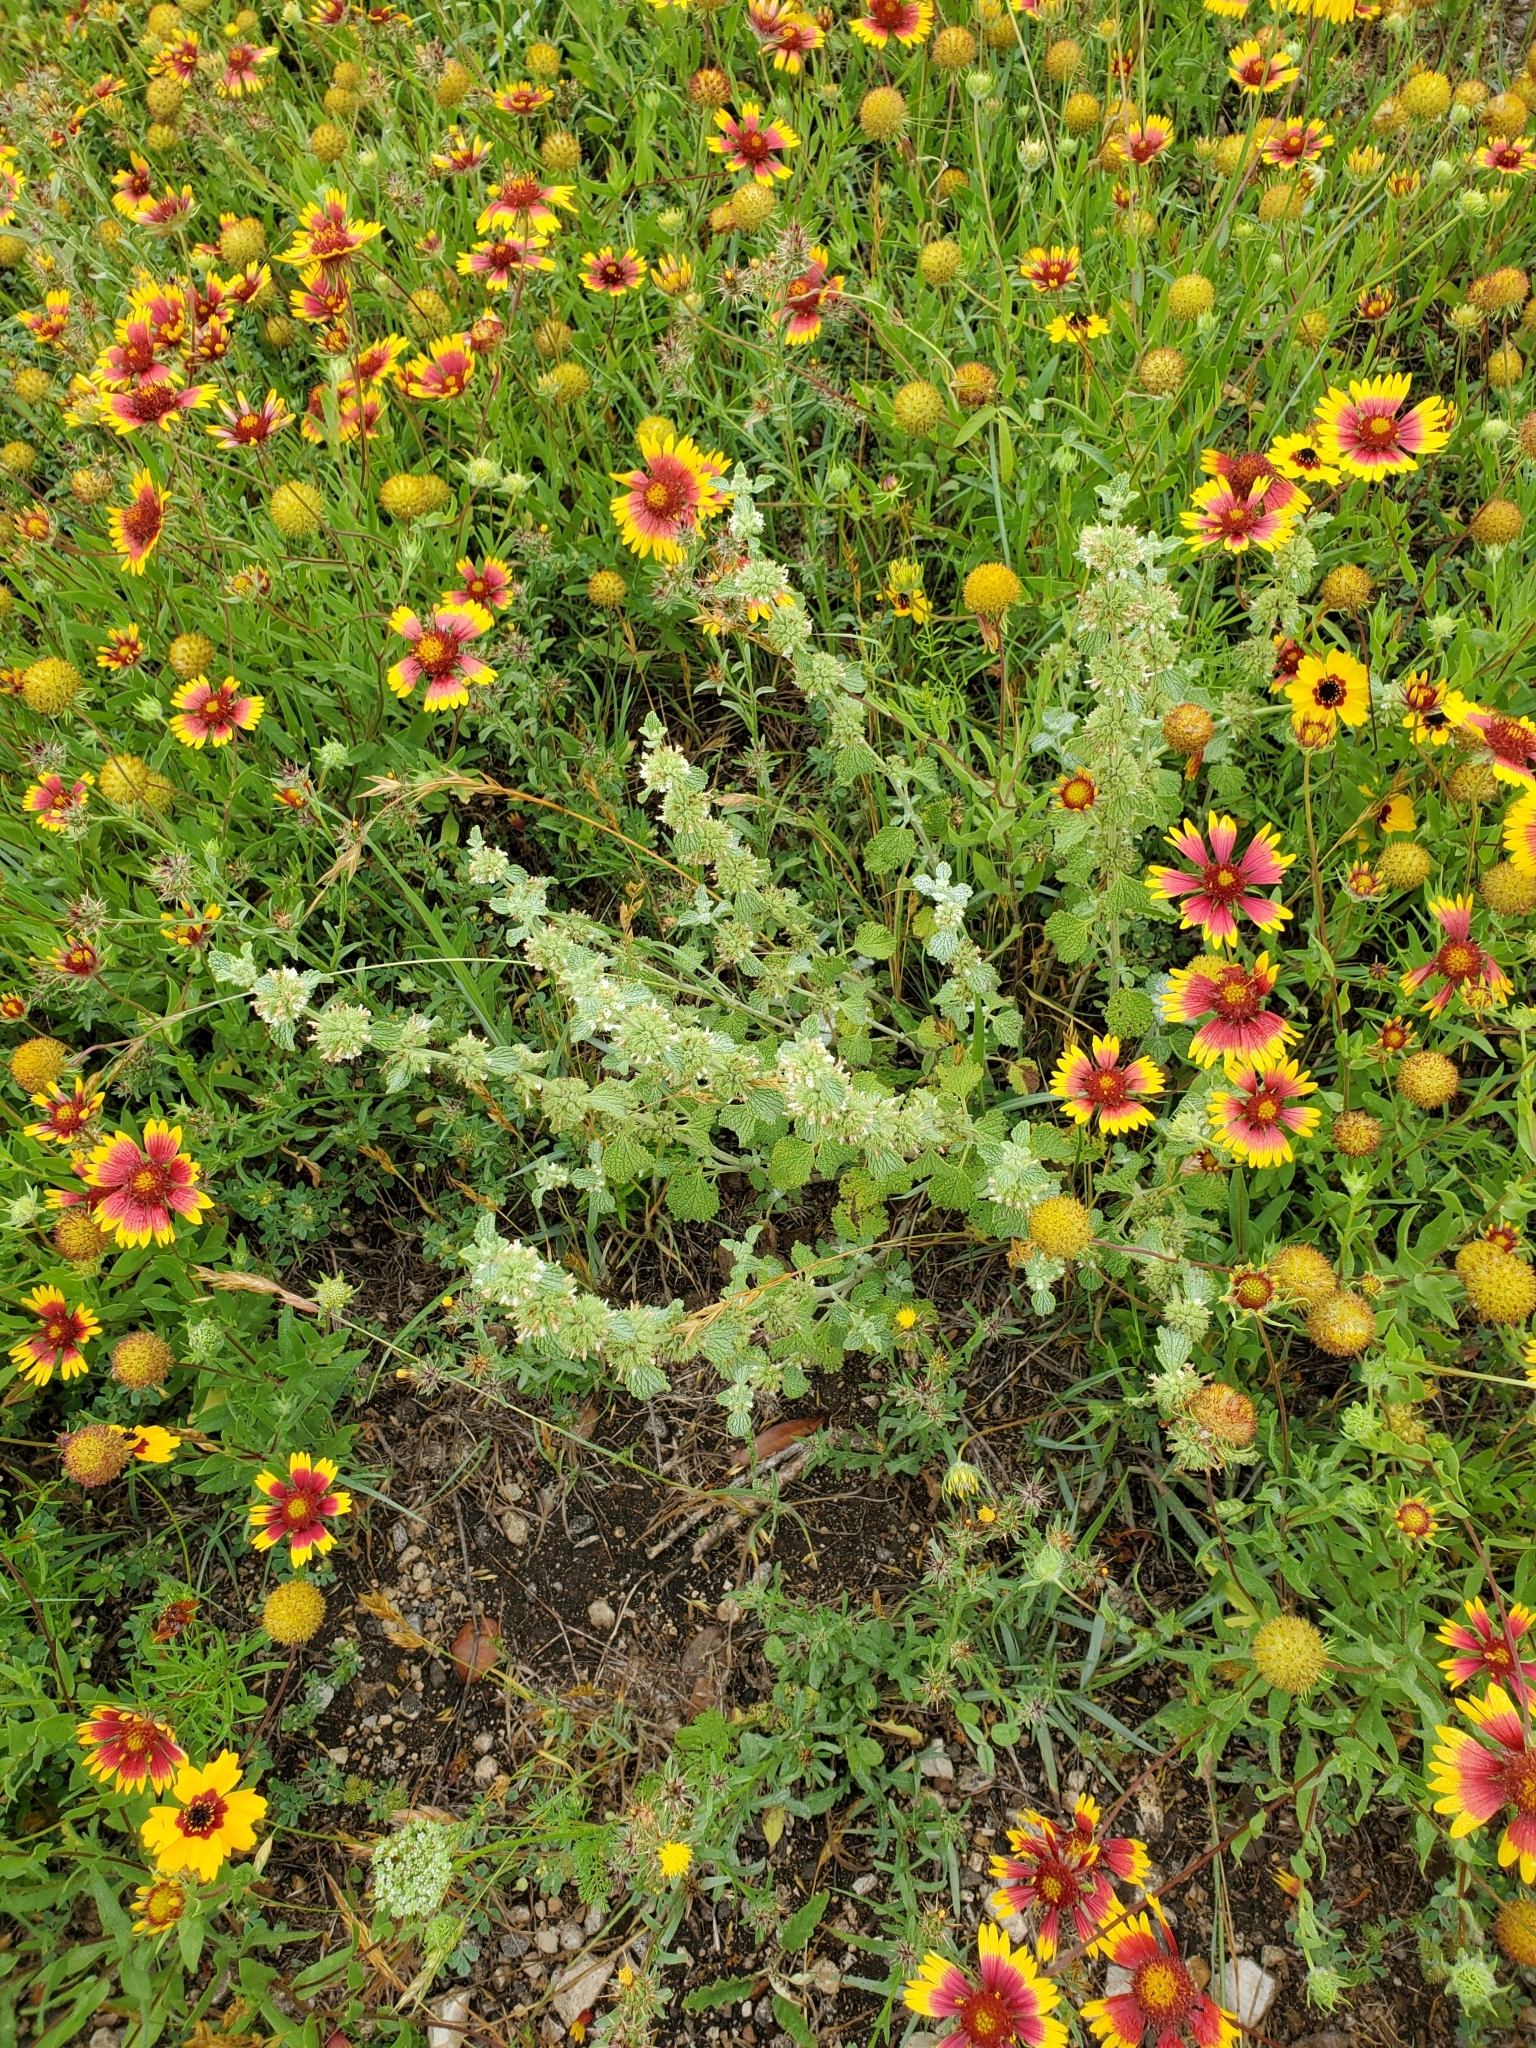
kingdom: Plantae
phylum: Tracheophyta
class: Magnoliopsida
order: Lamiales
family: Lamiaceae
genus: Marrubium
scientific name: Marrubium vulgare
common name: Horehound
